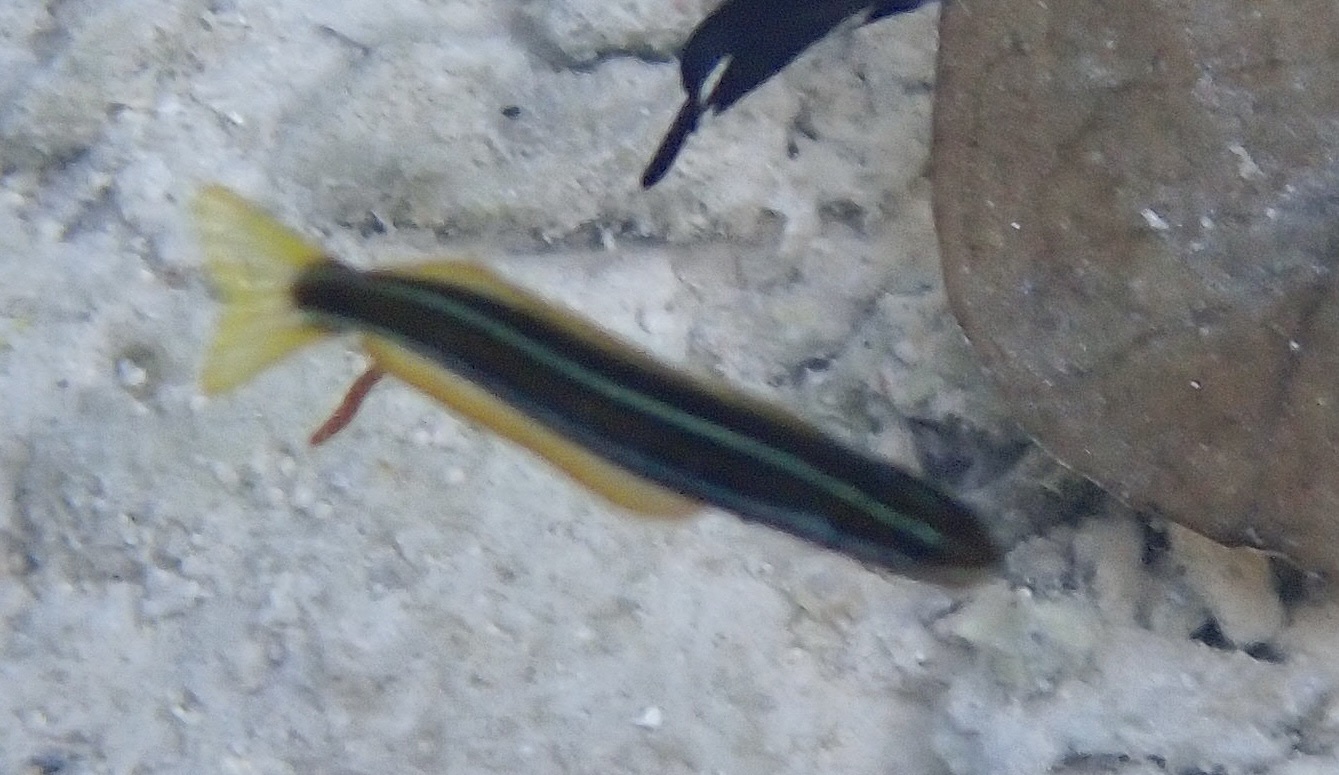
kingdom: Animalia
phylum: Chordata
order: Perciformes
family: Blenniidae
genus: Plagiotremus
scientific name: Plagiotremus rhinorhynchos
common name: Bluestriped fangblenny
